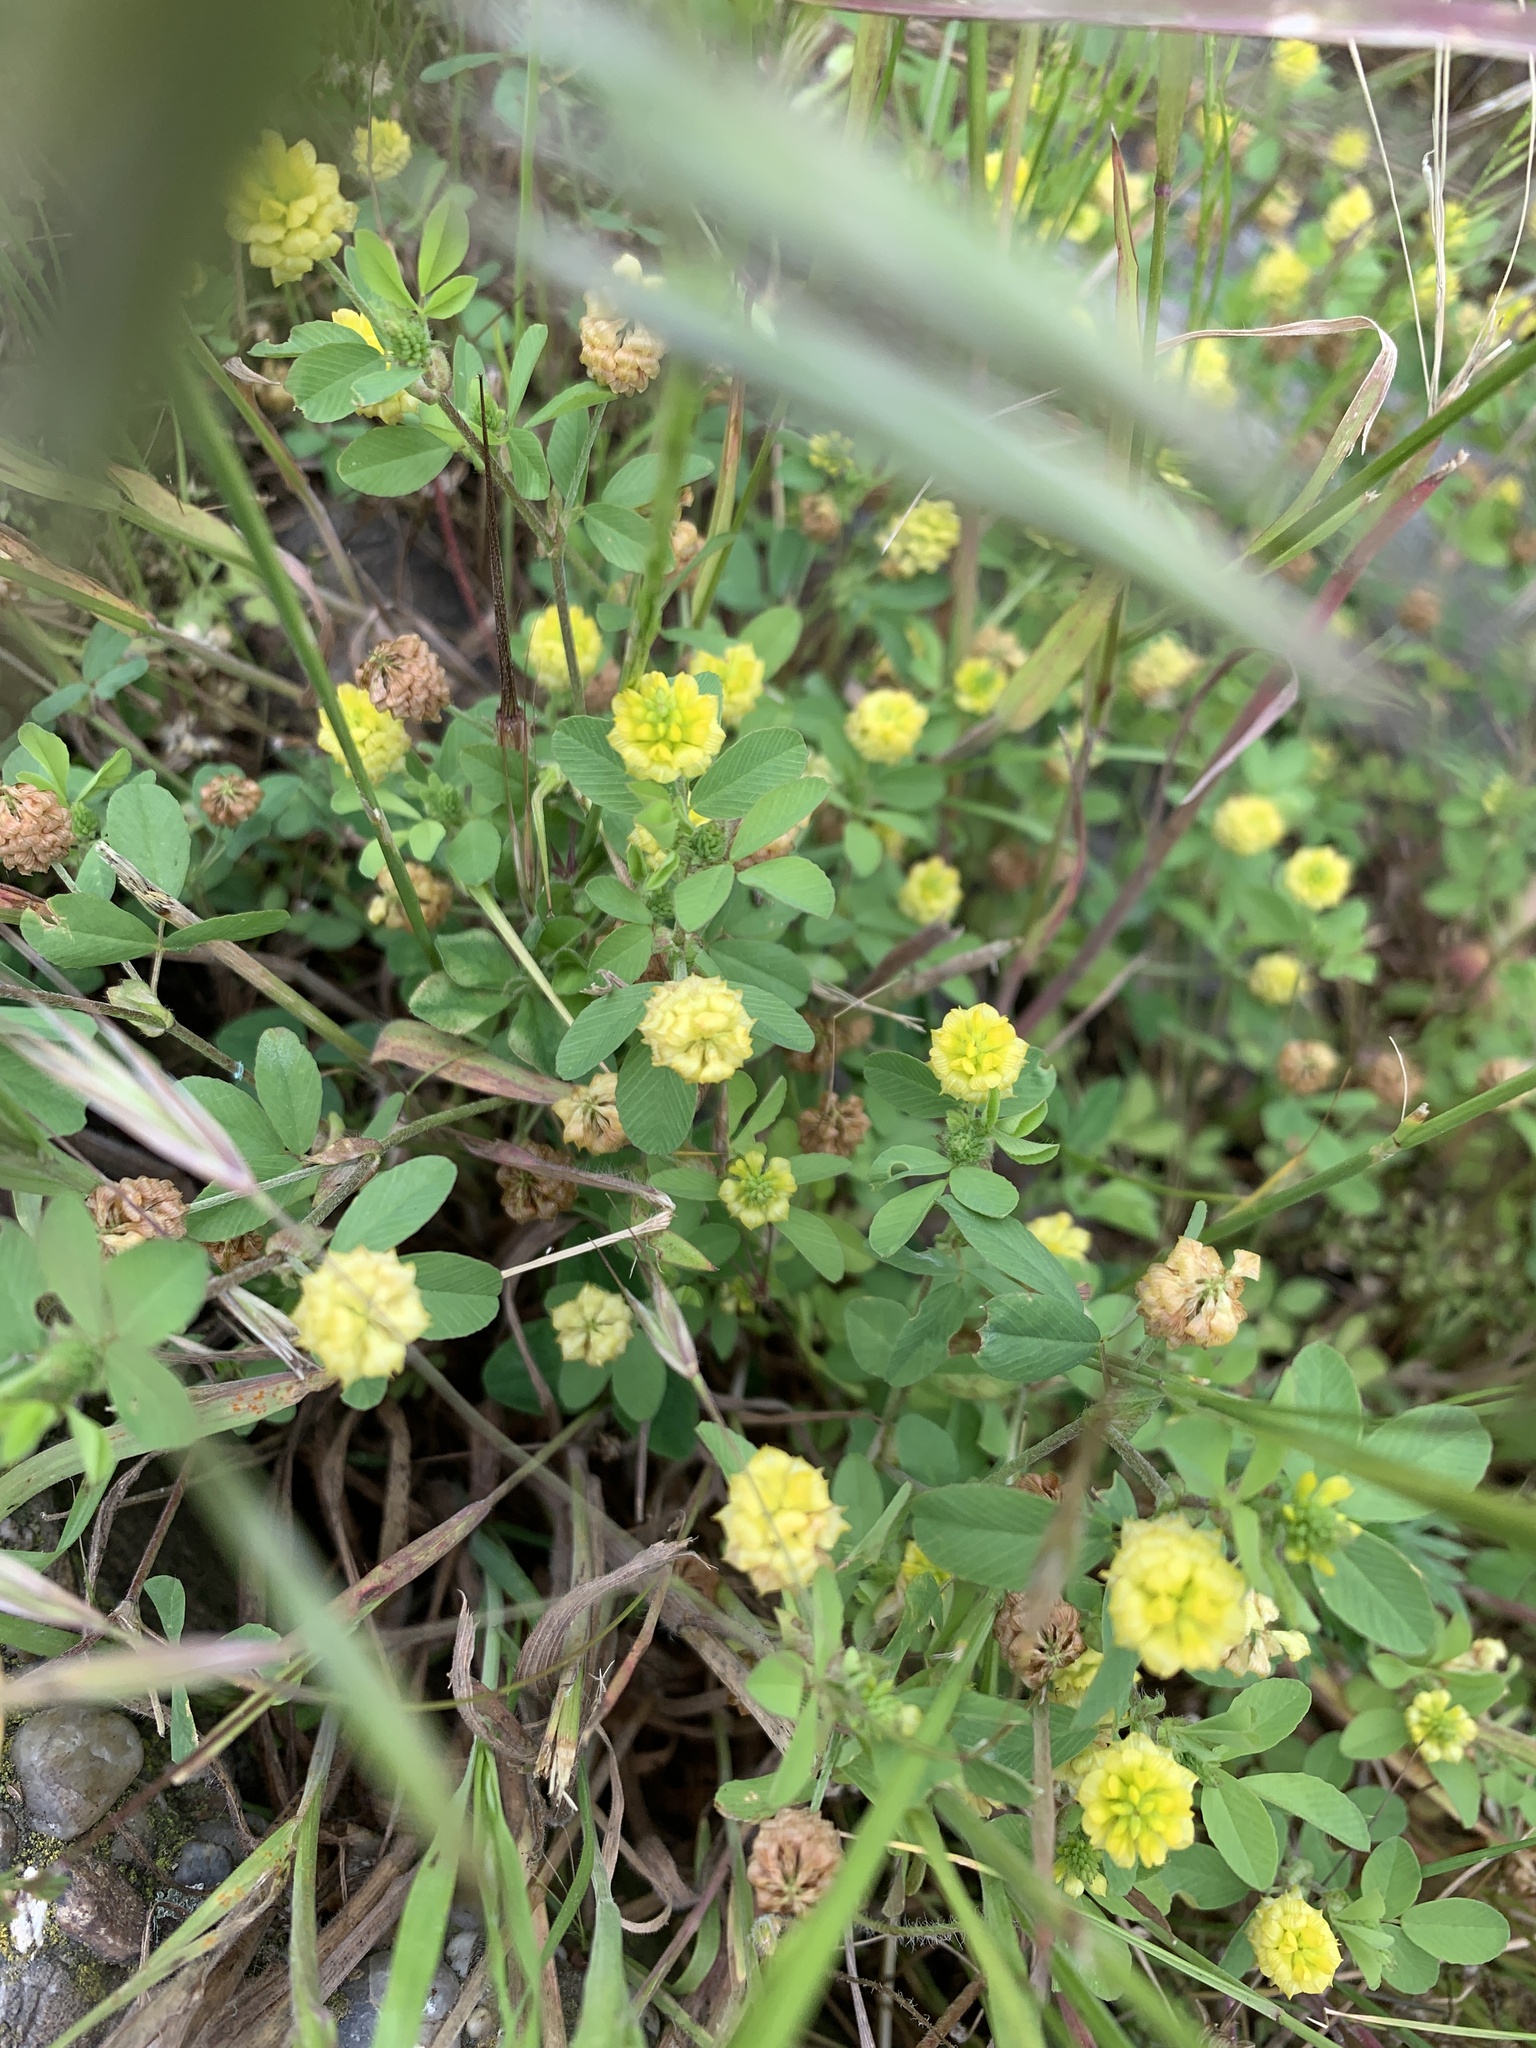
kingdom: Plantae
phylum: Tracheophyta
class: Magnoliopsida
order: Fabales
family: Fabaceae
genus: Trifolium
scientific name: Trifolium campestre
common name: Field clover
